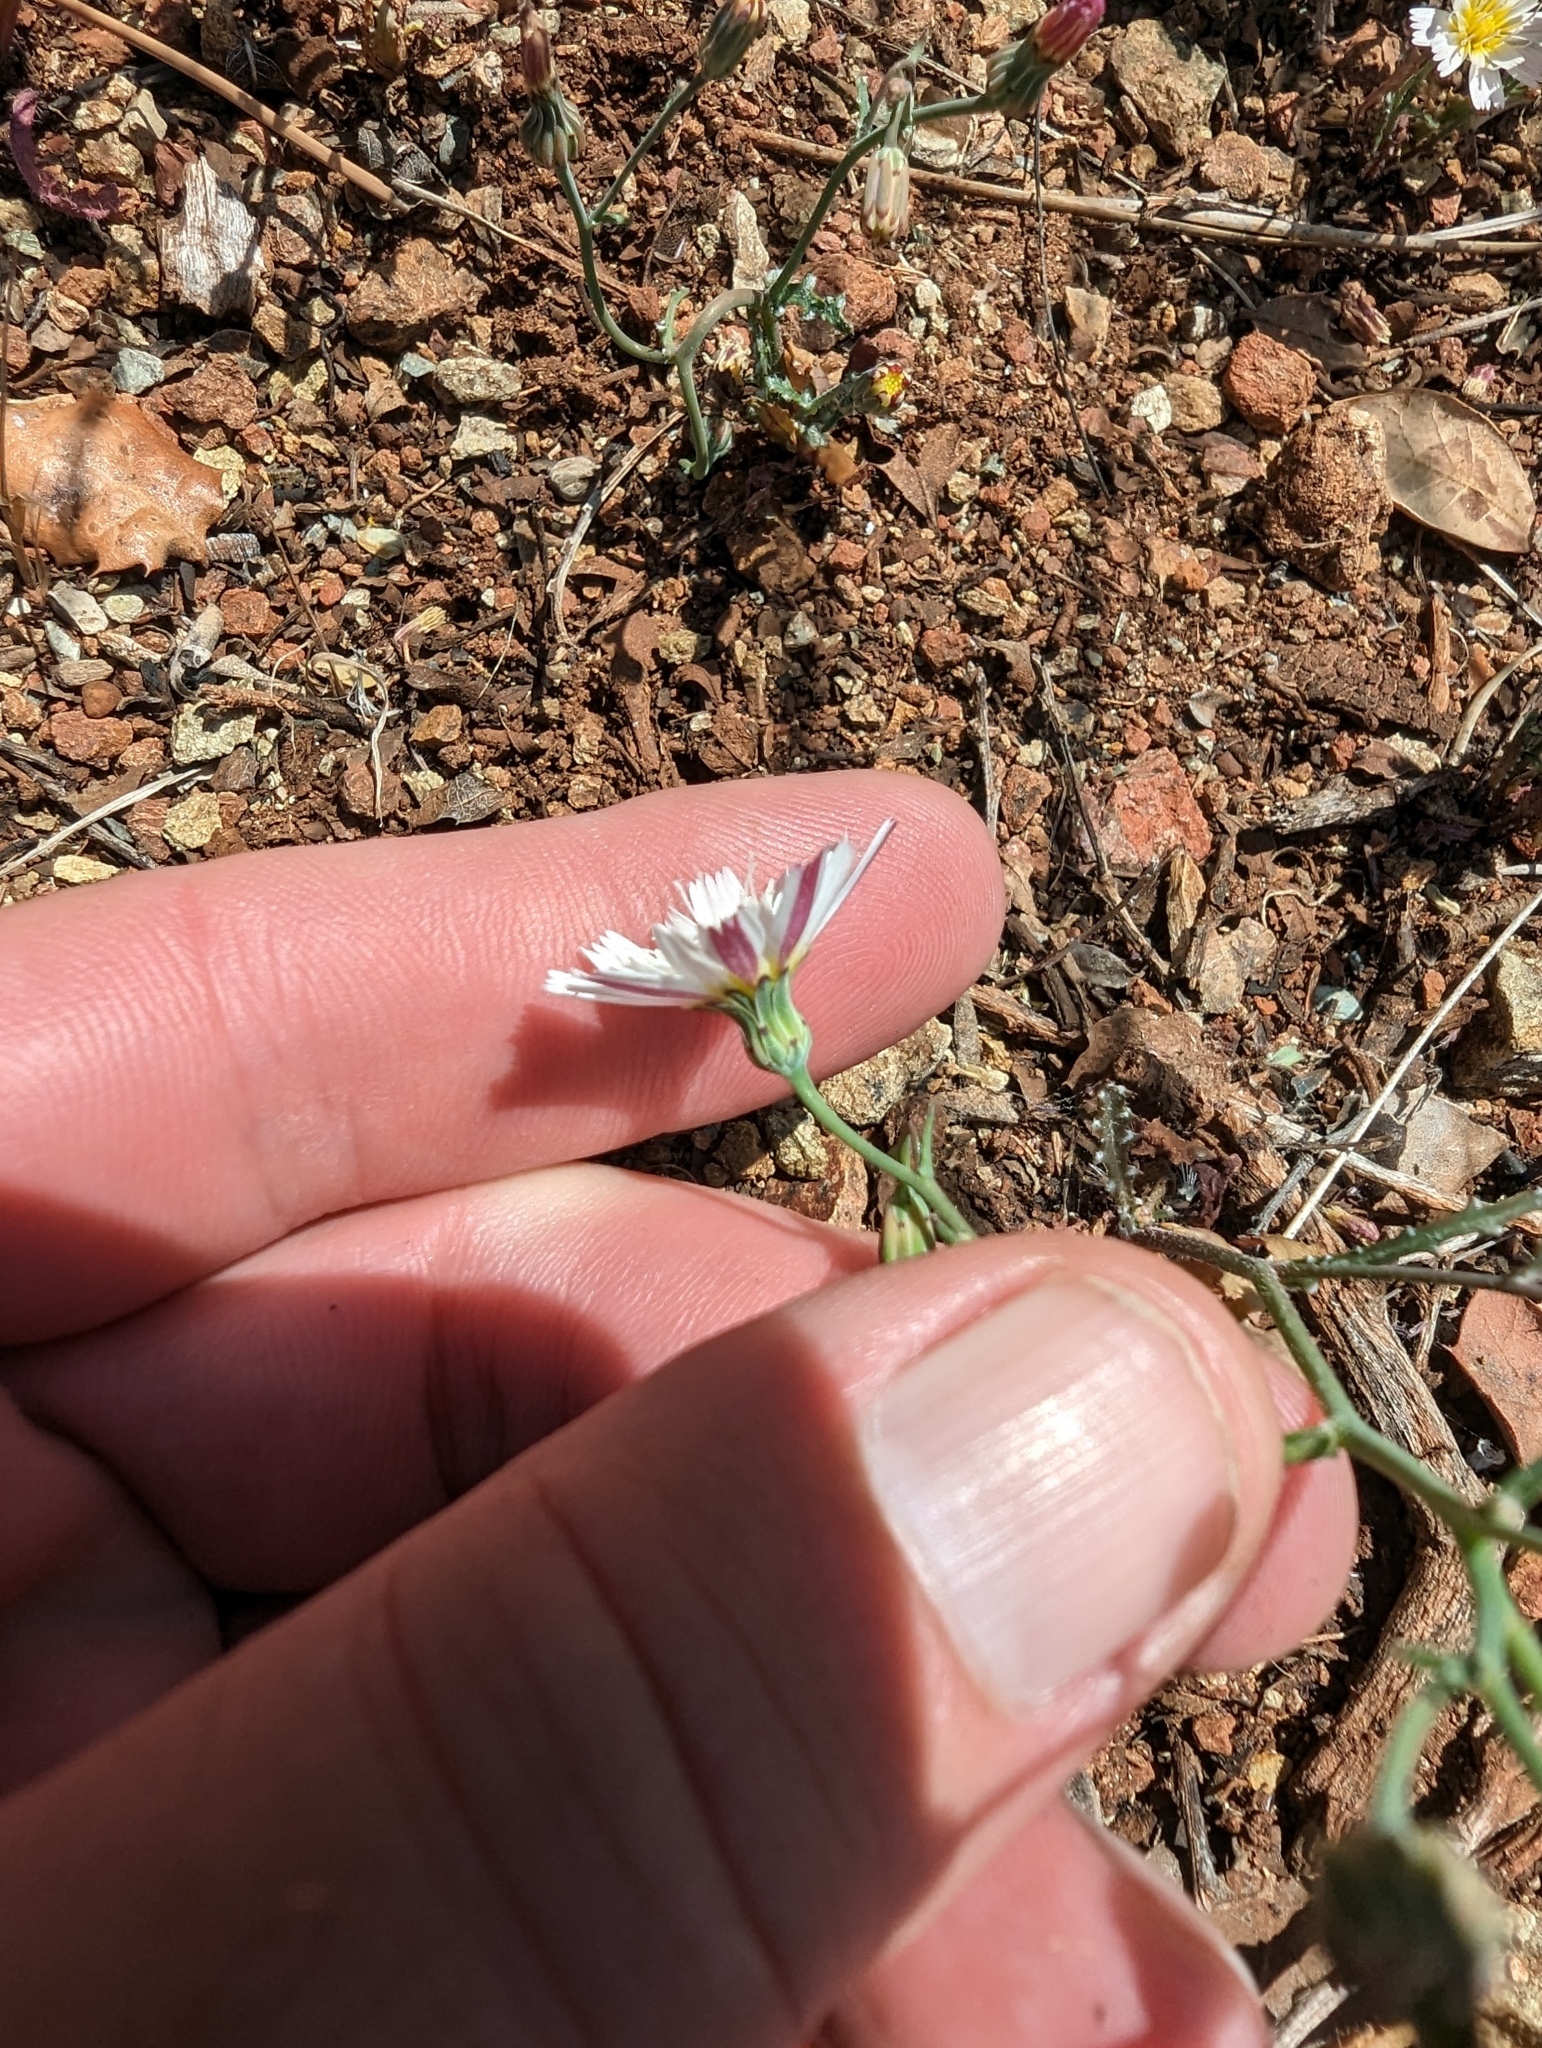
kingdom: Plantae
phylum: Tracheophyta
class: Magnoliopsida
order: Asterales
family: Asteraceae
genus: Malacothrix
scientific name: Malacothrix floccifera
